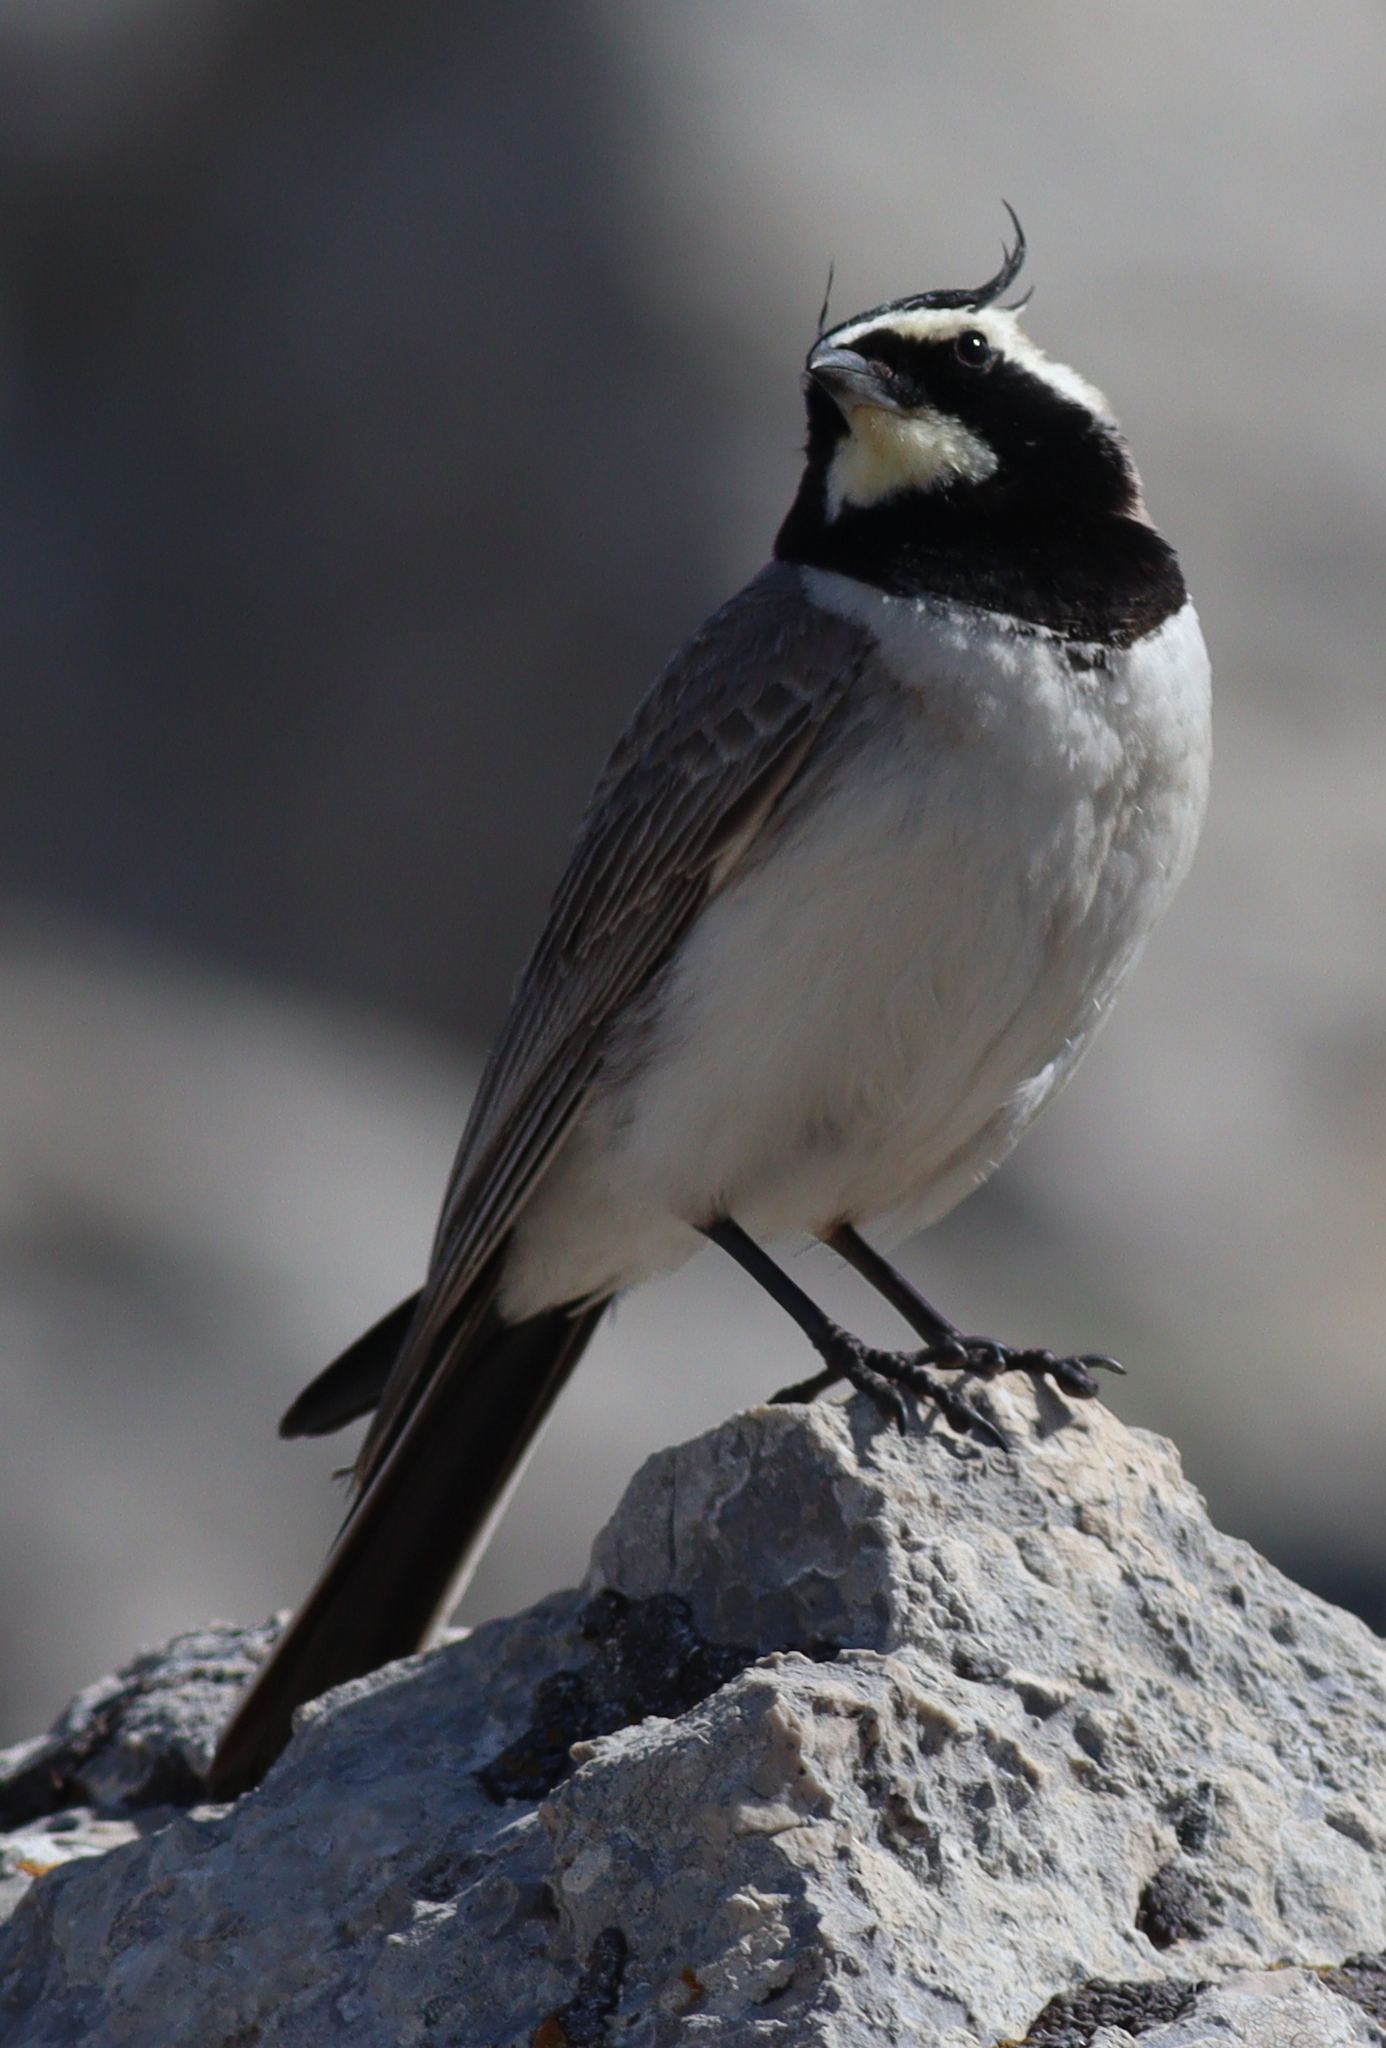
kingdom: Animalia
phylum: Chordata
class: Aves
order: Passeriformes
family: Alaudidae
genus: Eremophila
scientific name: Eremophila alpestris
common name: Horned lark
